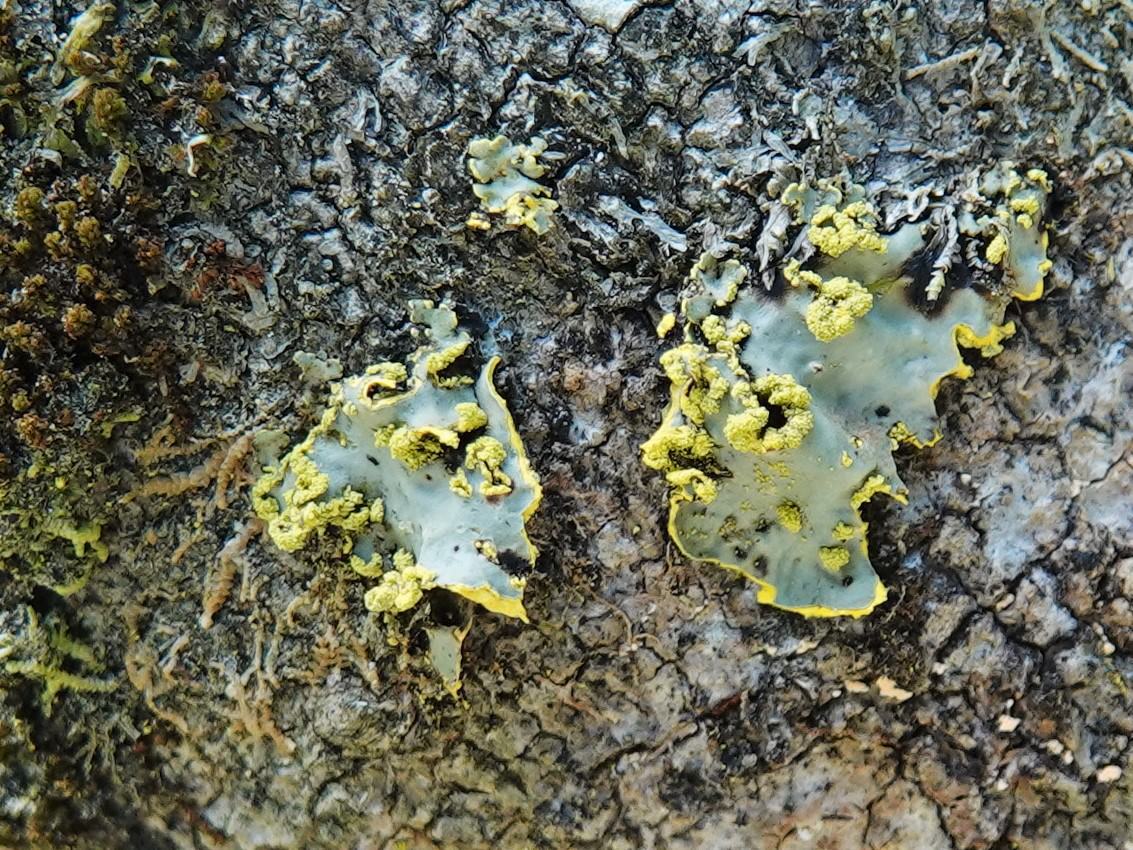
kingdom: Fungi
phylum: Ascomycota
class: Lecanoromycetes
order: Peltigerales
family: Lobariaceae
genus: Pseudocyphellaria
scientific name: Pseudocyphellaria aurata
